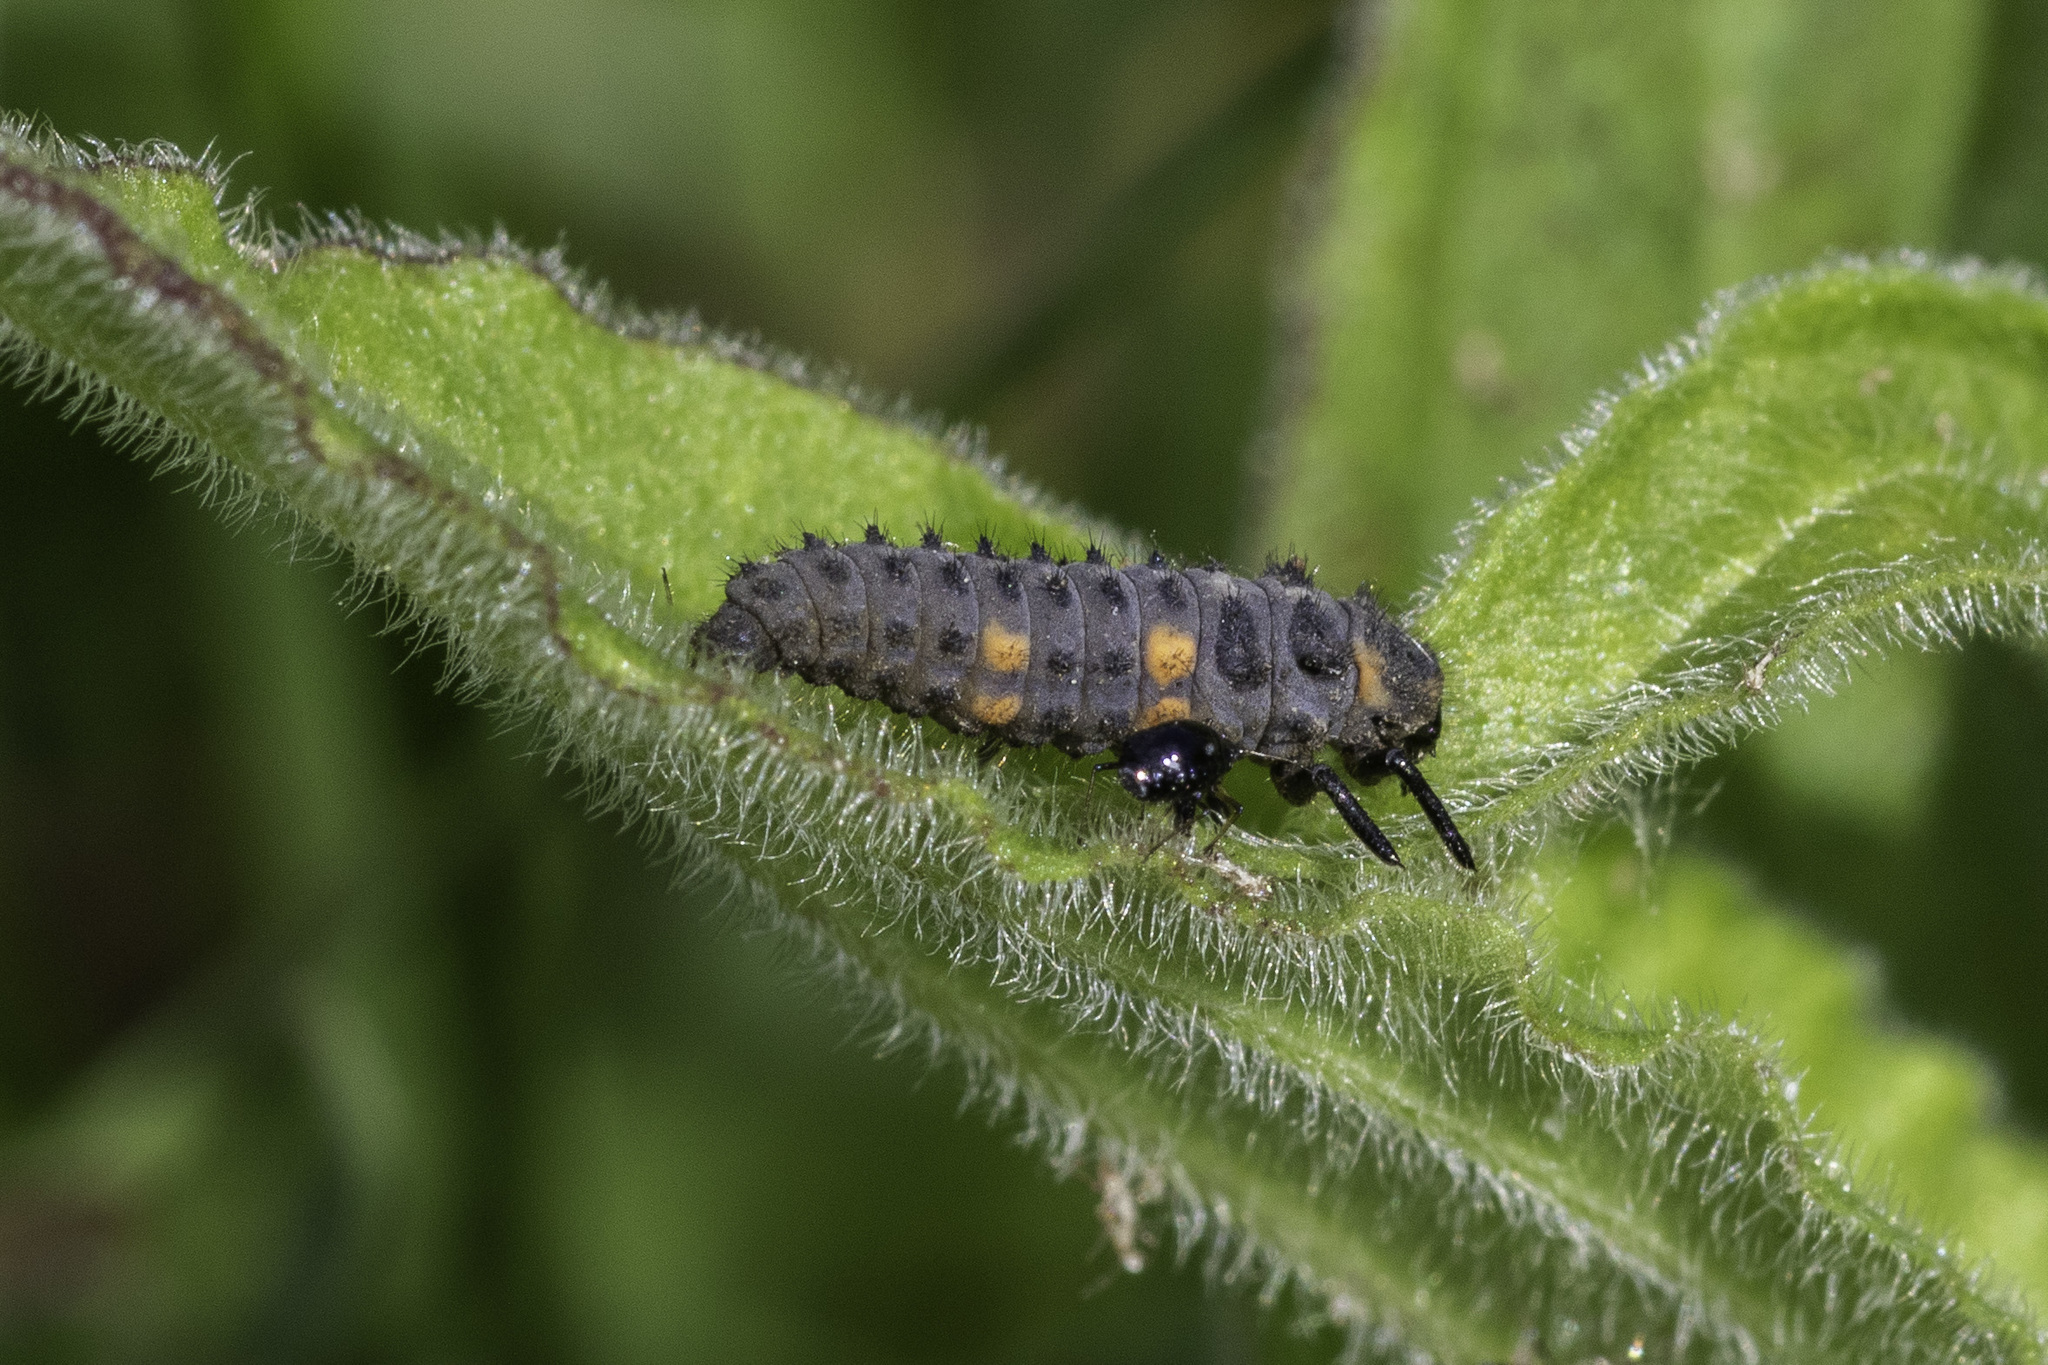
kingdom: Animalia
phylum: Arthropoda
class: Insecta
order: Coleoptera
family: Coccinellidae
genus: Coccinella
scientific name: Coccinella septempunctata
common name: Sevenspotted lady beetle
